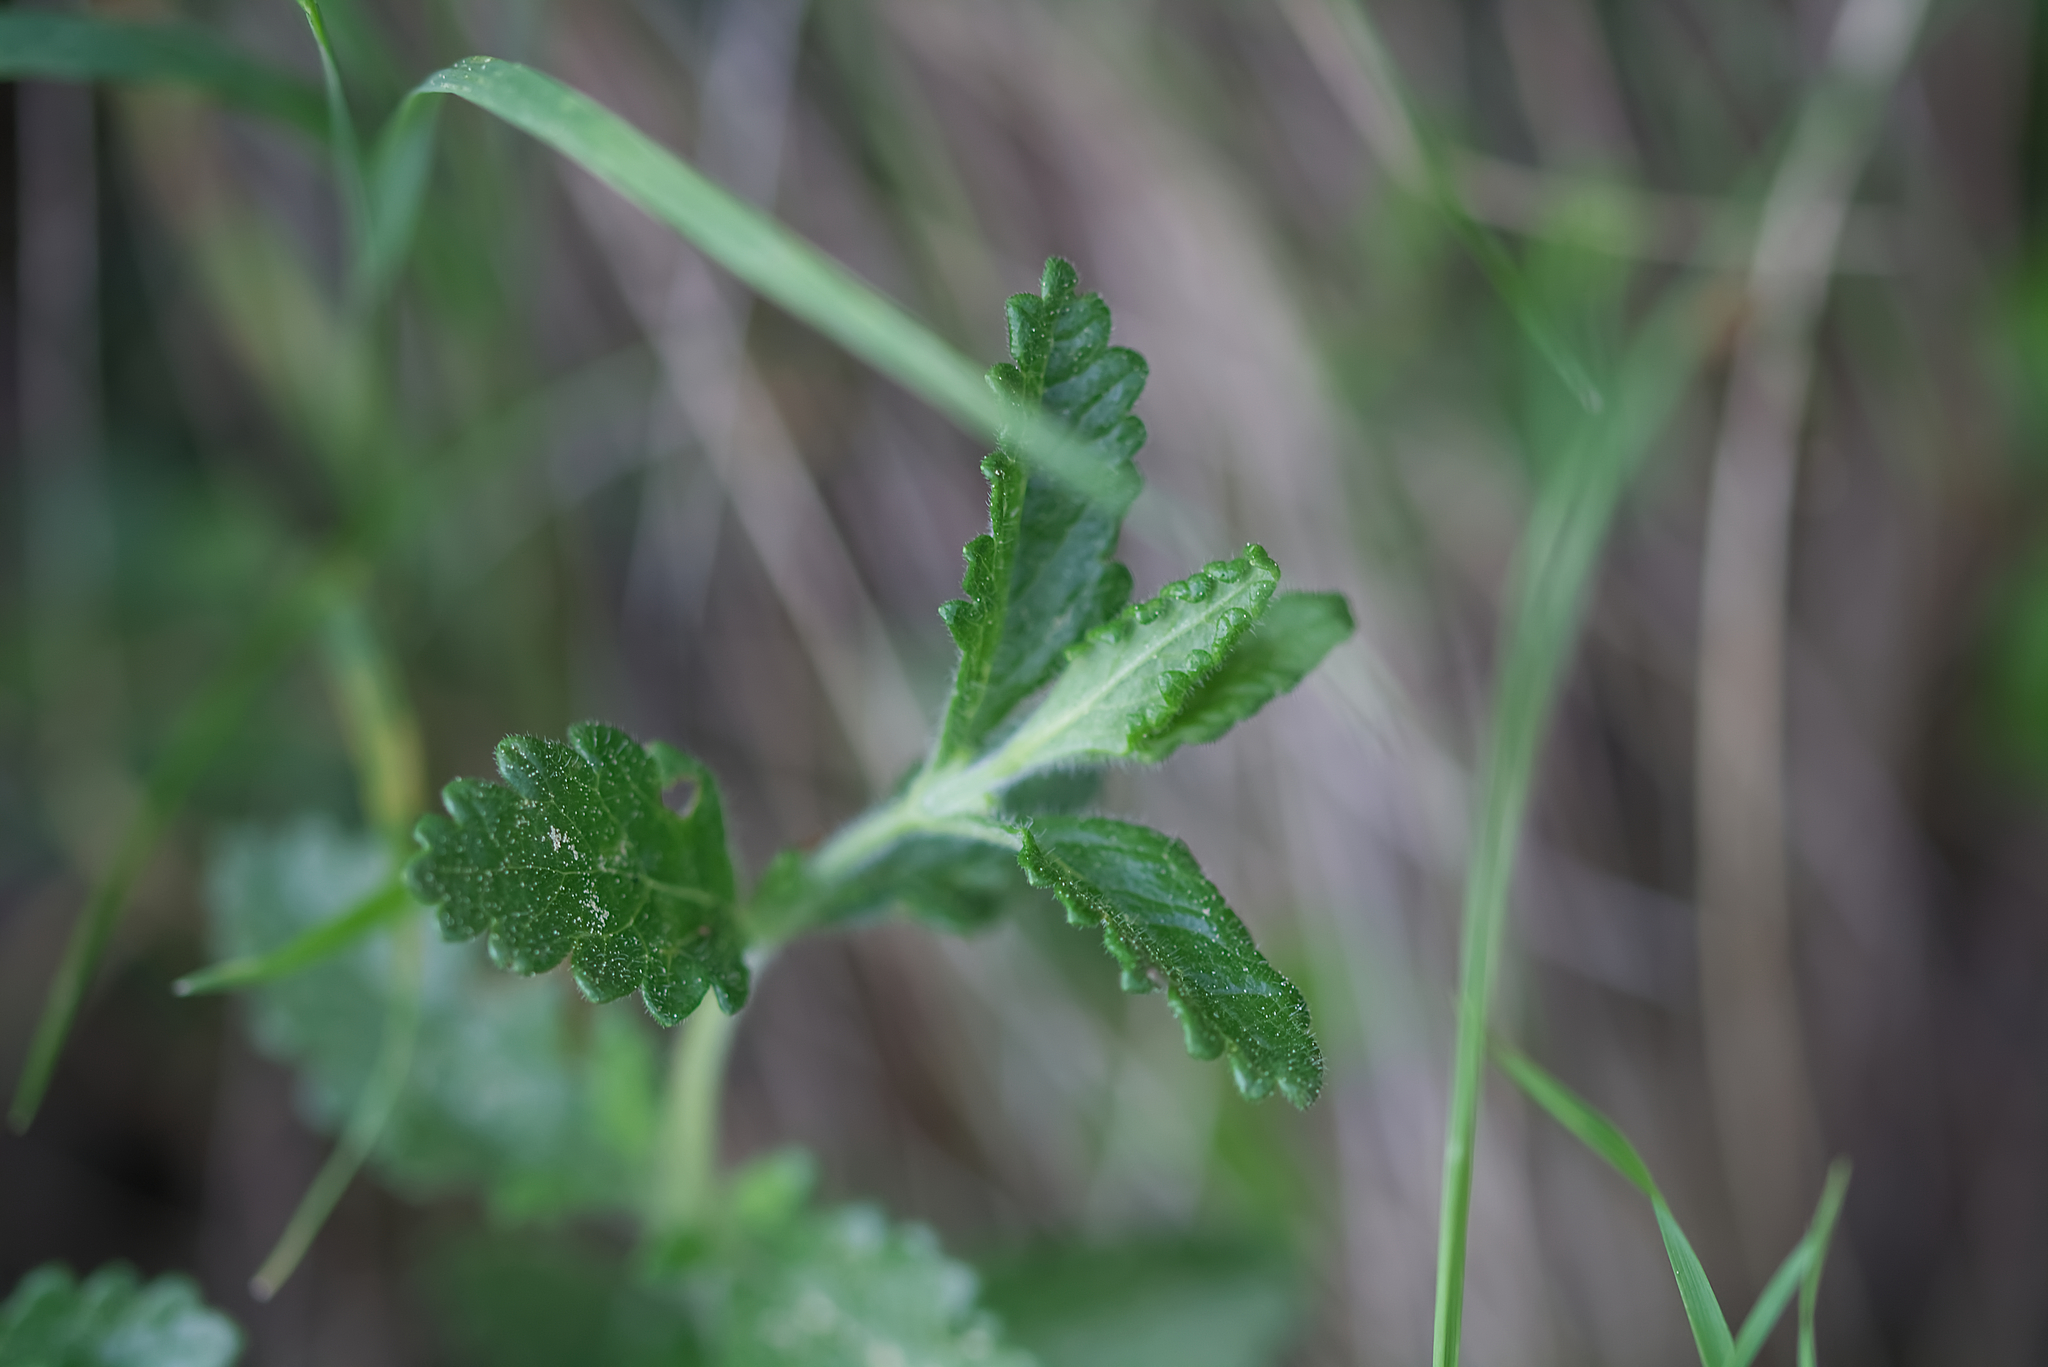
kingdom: Plantae
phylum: Tracheophyta
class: Magnoliopsida
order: Lamiales
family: Lamiaceae
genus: Teucrium
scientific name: Teucrium chamaedrys
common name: Wall germander
